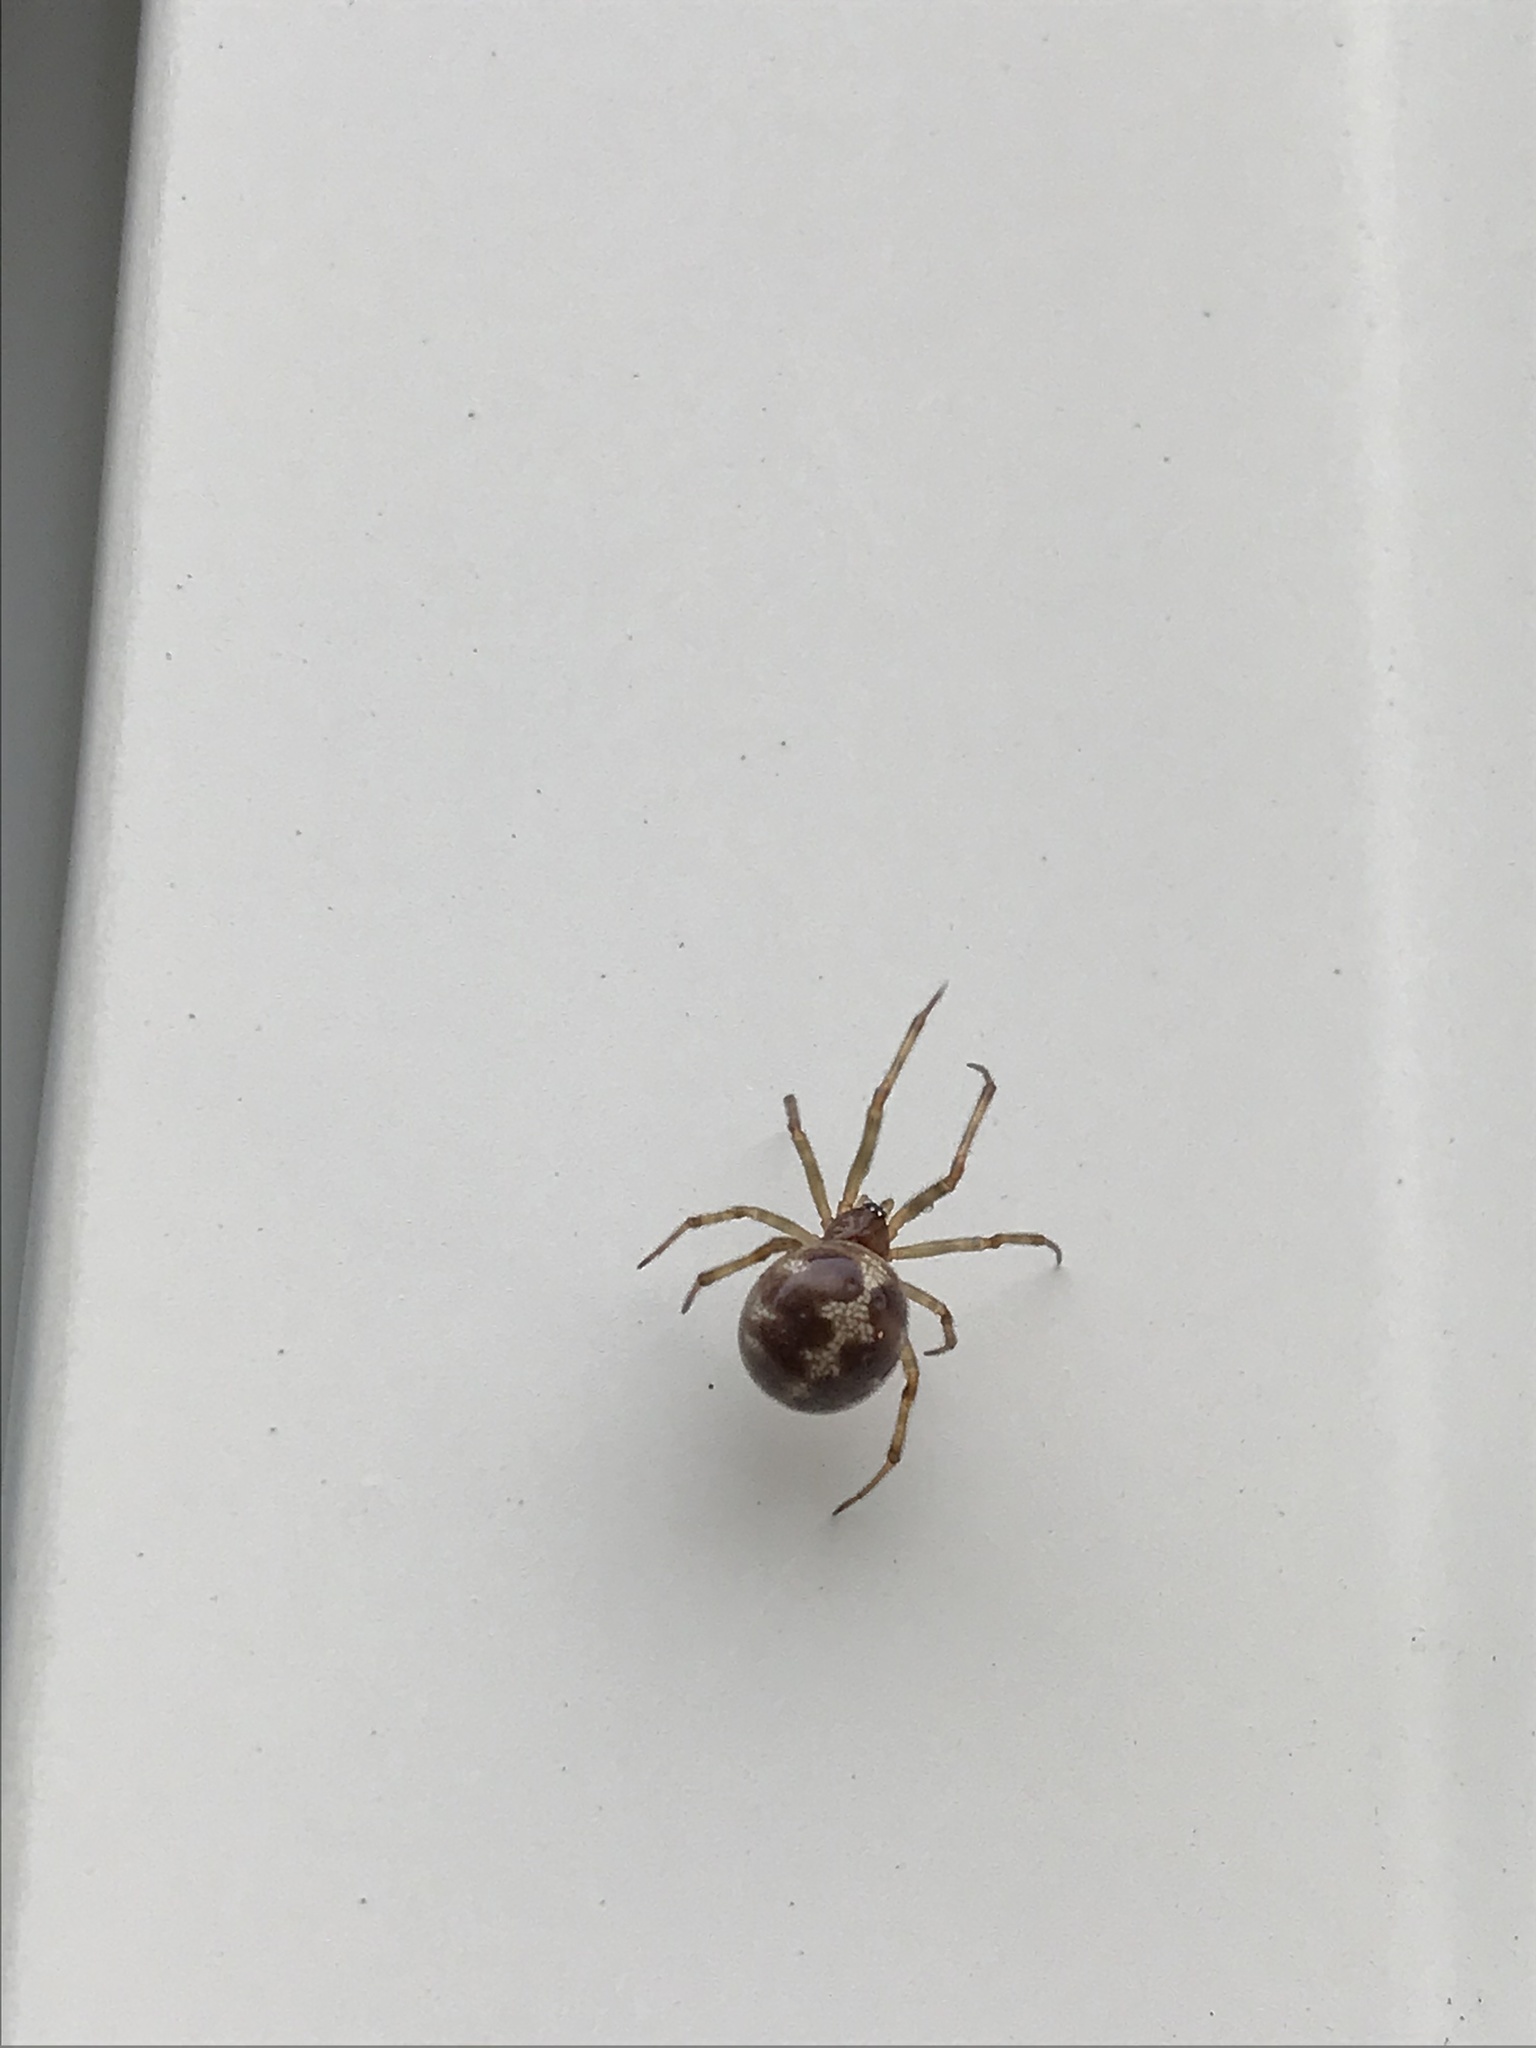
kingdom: Animalia
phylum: Arthropoda
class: Arachnida
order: Araneae
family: Theridiidae
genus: Steatoda
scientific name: Steatoda triangulosa
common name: Triangulate bud spider
